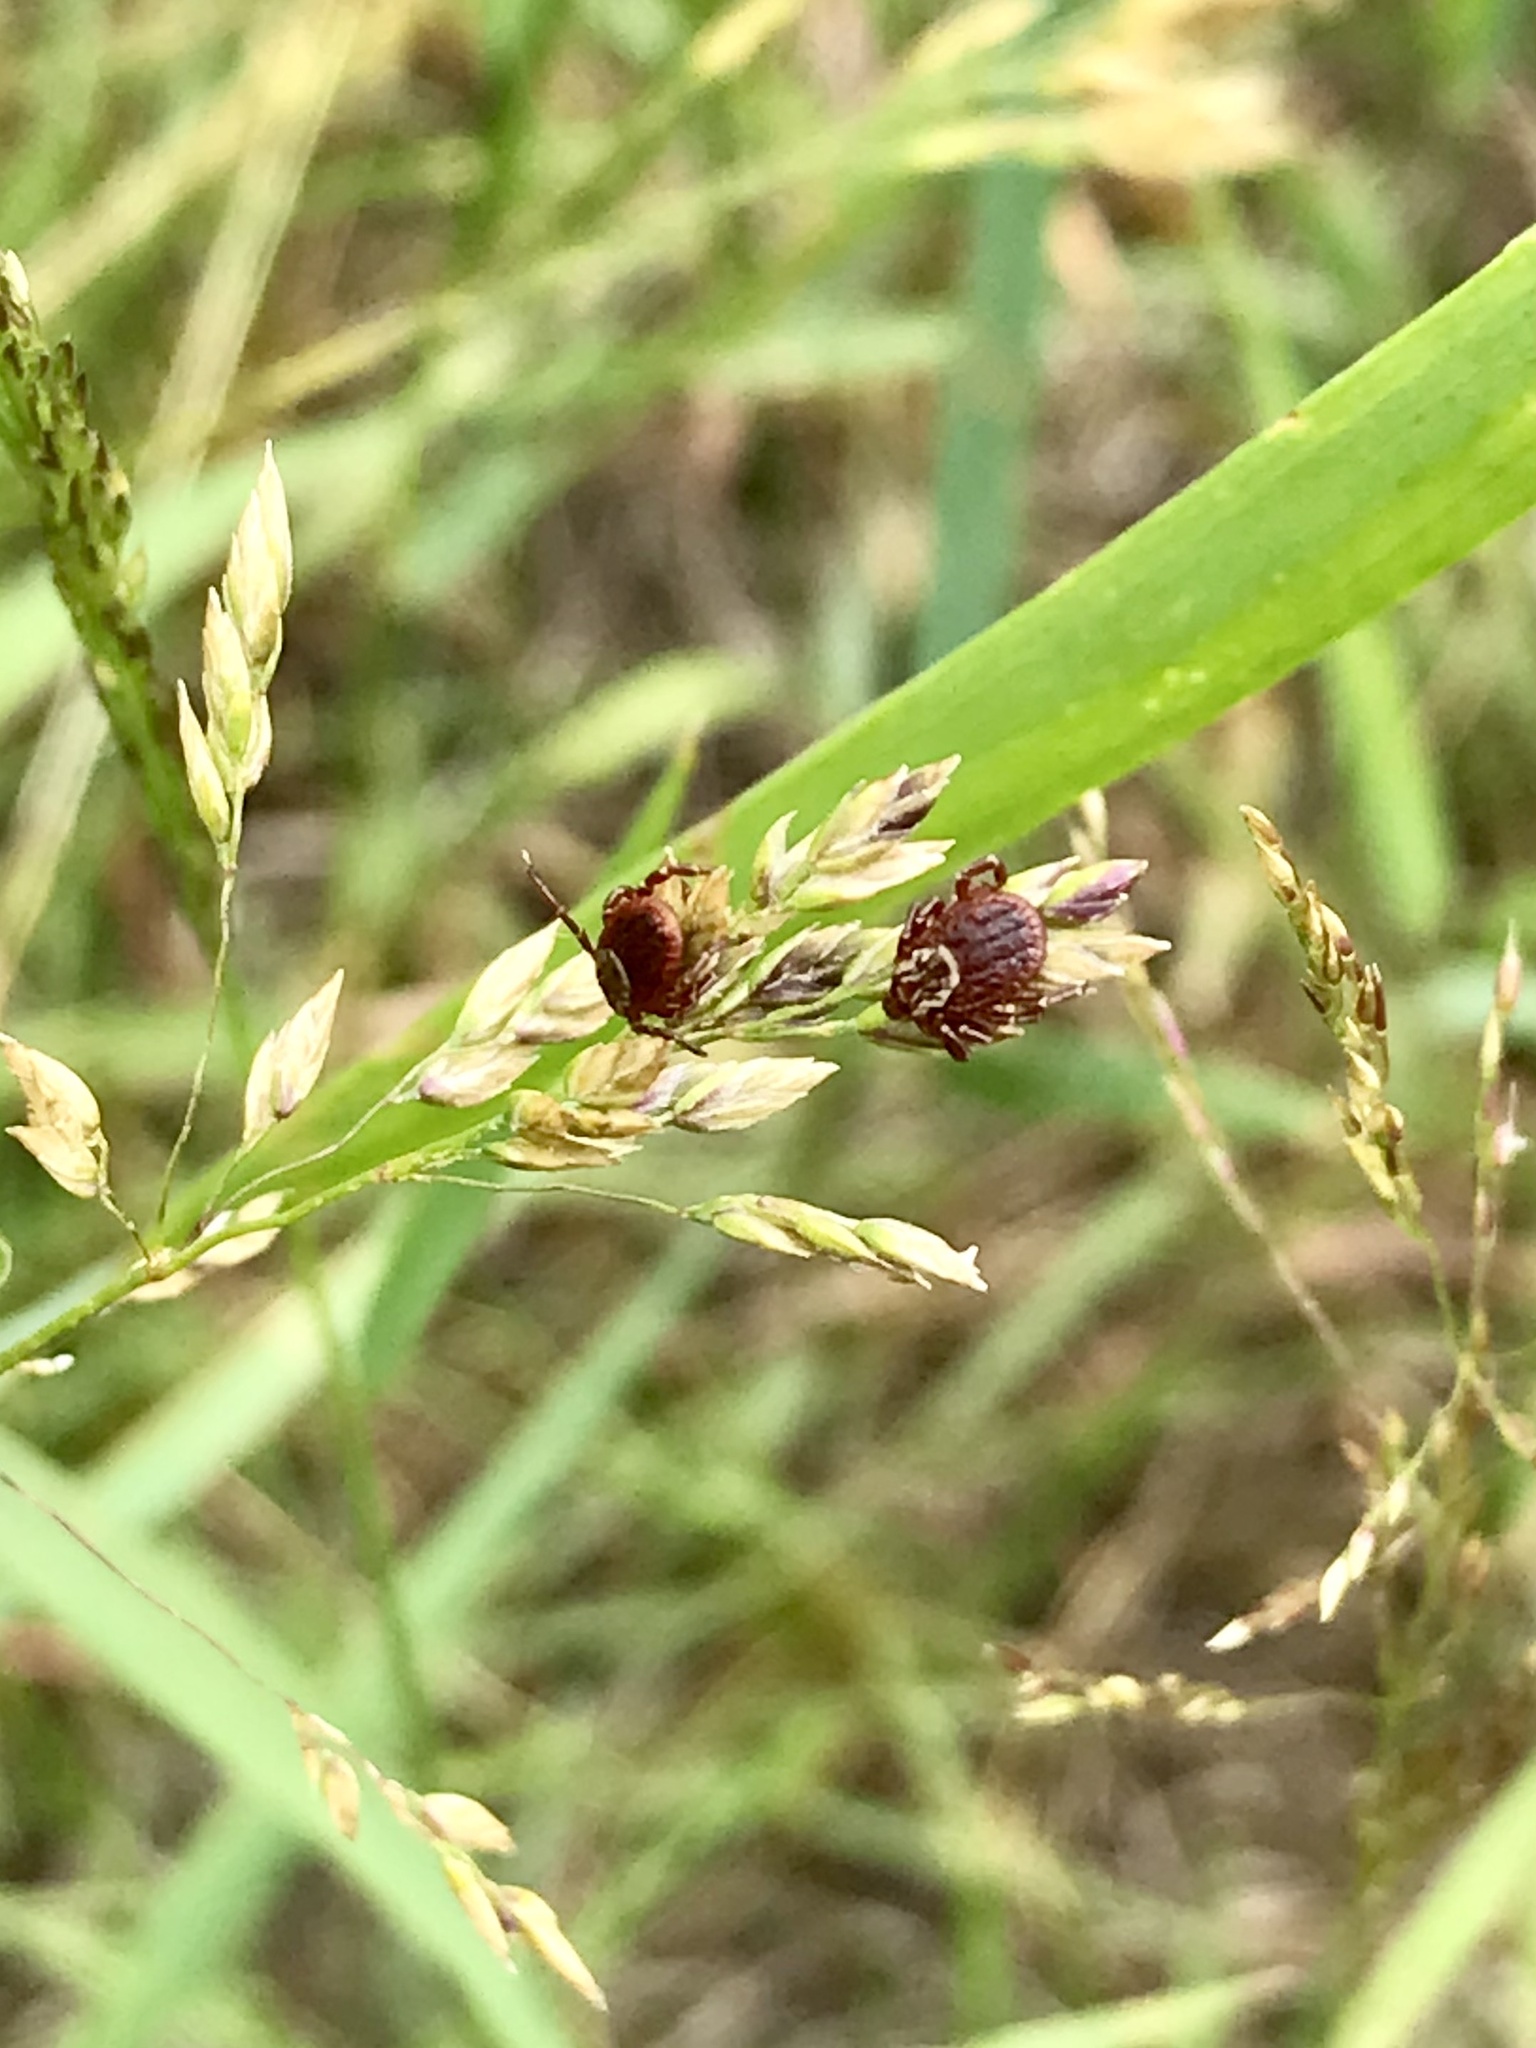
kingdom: Animalia
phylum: Arthropoda
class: Arachnida
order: Ixodida
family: Ixodidae
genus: Dermacentor
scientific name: Dermacentor variabilis
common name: American dog tick
